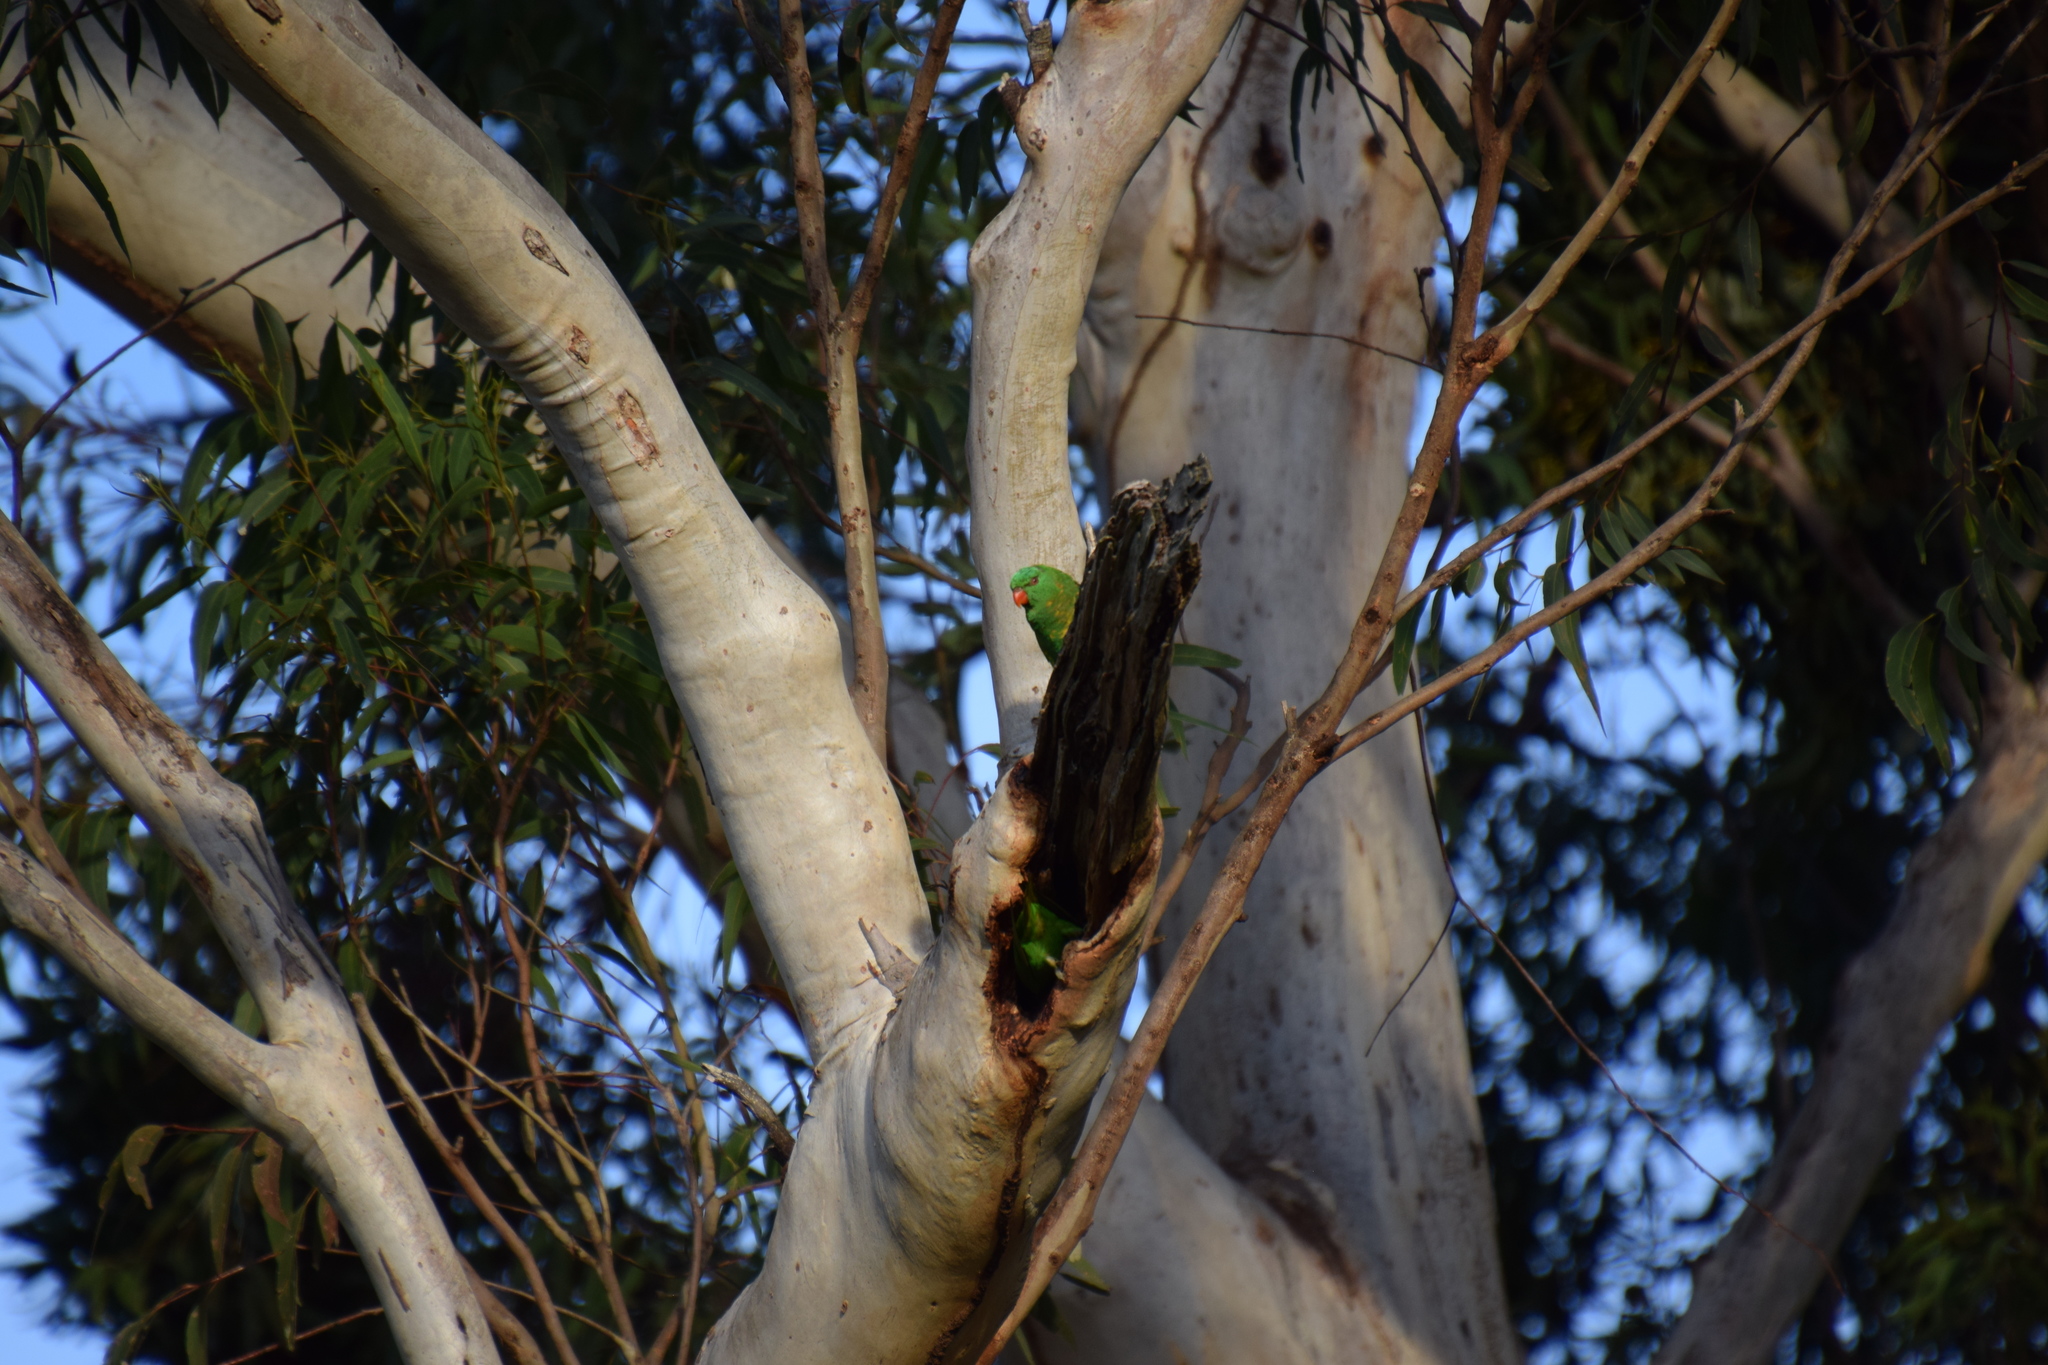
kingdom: Animalia
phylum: Chordata
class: Aves
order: Psittaciformes
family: Psittacidae
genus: Trichoglossus
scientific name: Trichoglossus chlorolepidotus
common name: Scaly-breasted lorikeet
